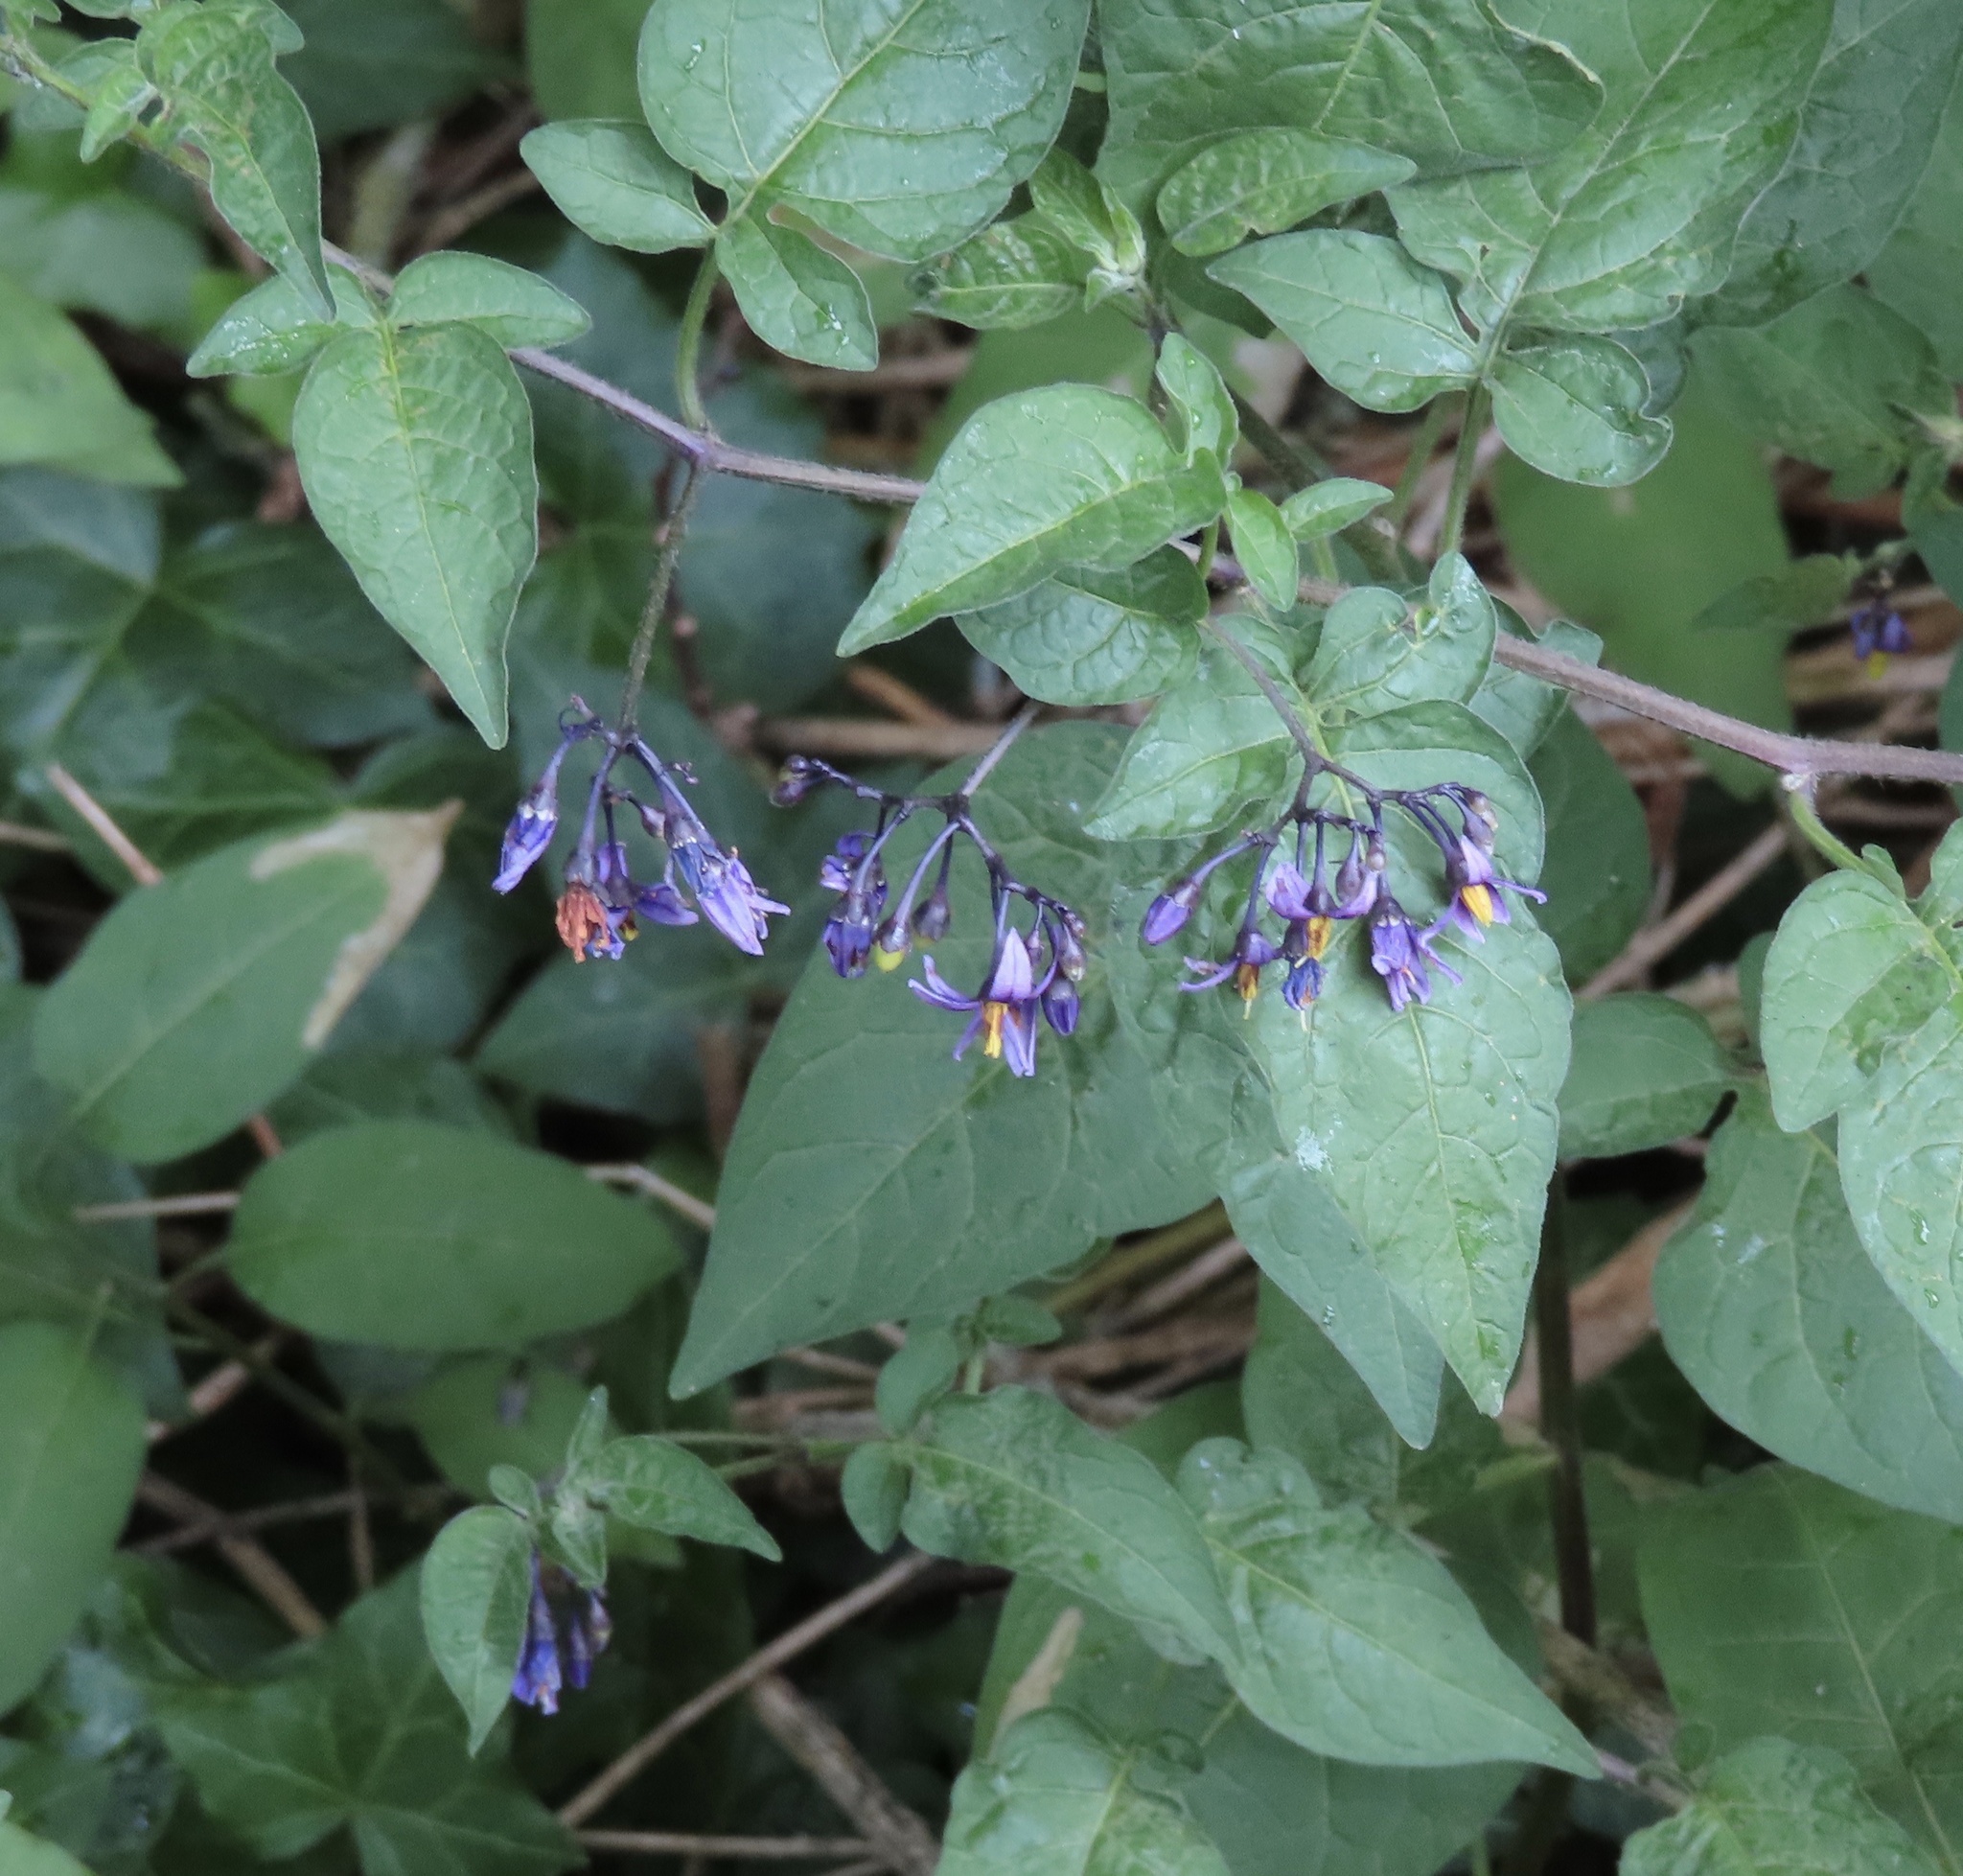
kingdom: Plantae
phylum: Tracheophyta
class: Magnoliopsida
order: Solanales
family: Solanaceae
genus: Solanum
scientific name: Solanum dulcamara
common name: Climbing nightshade
